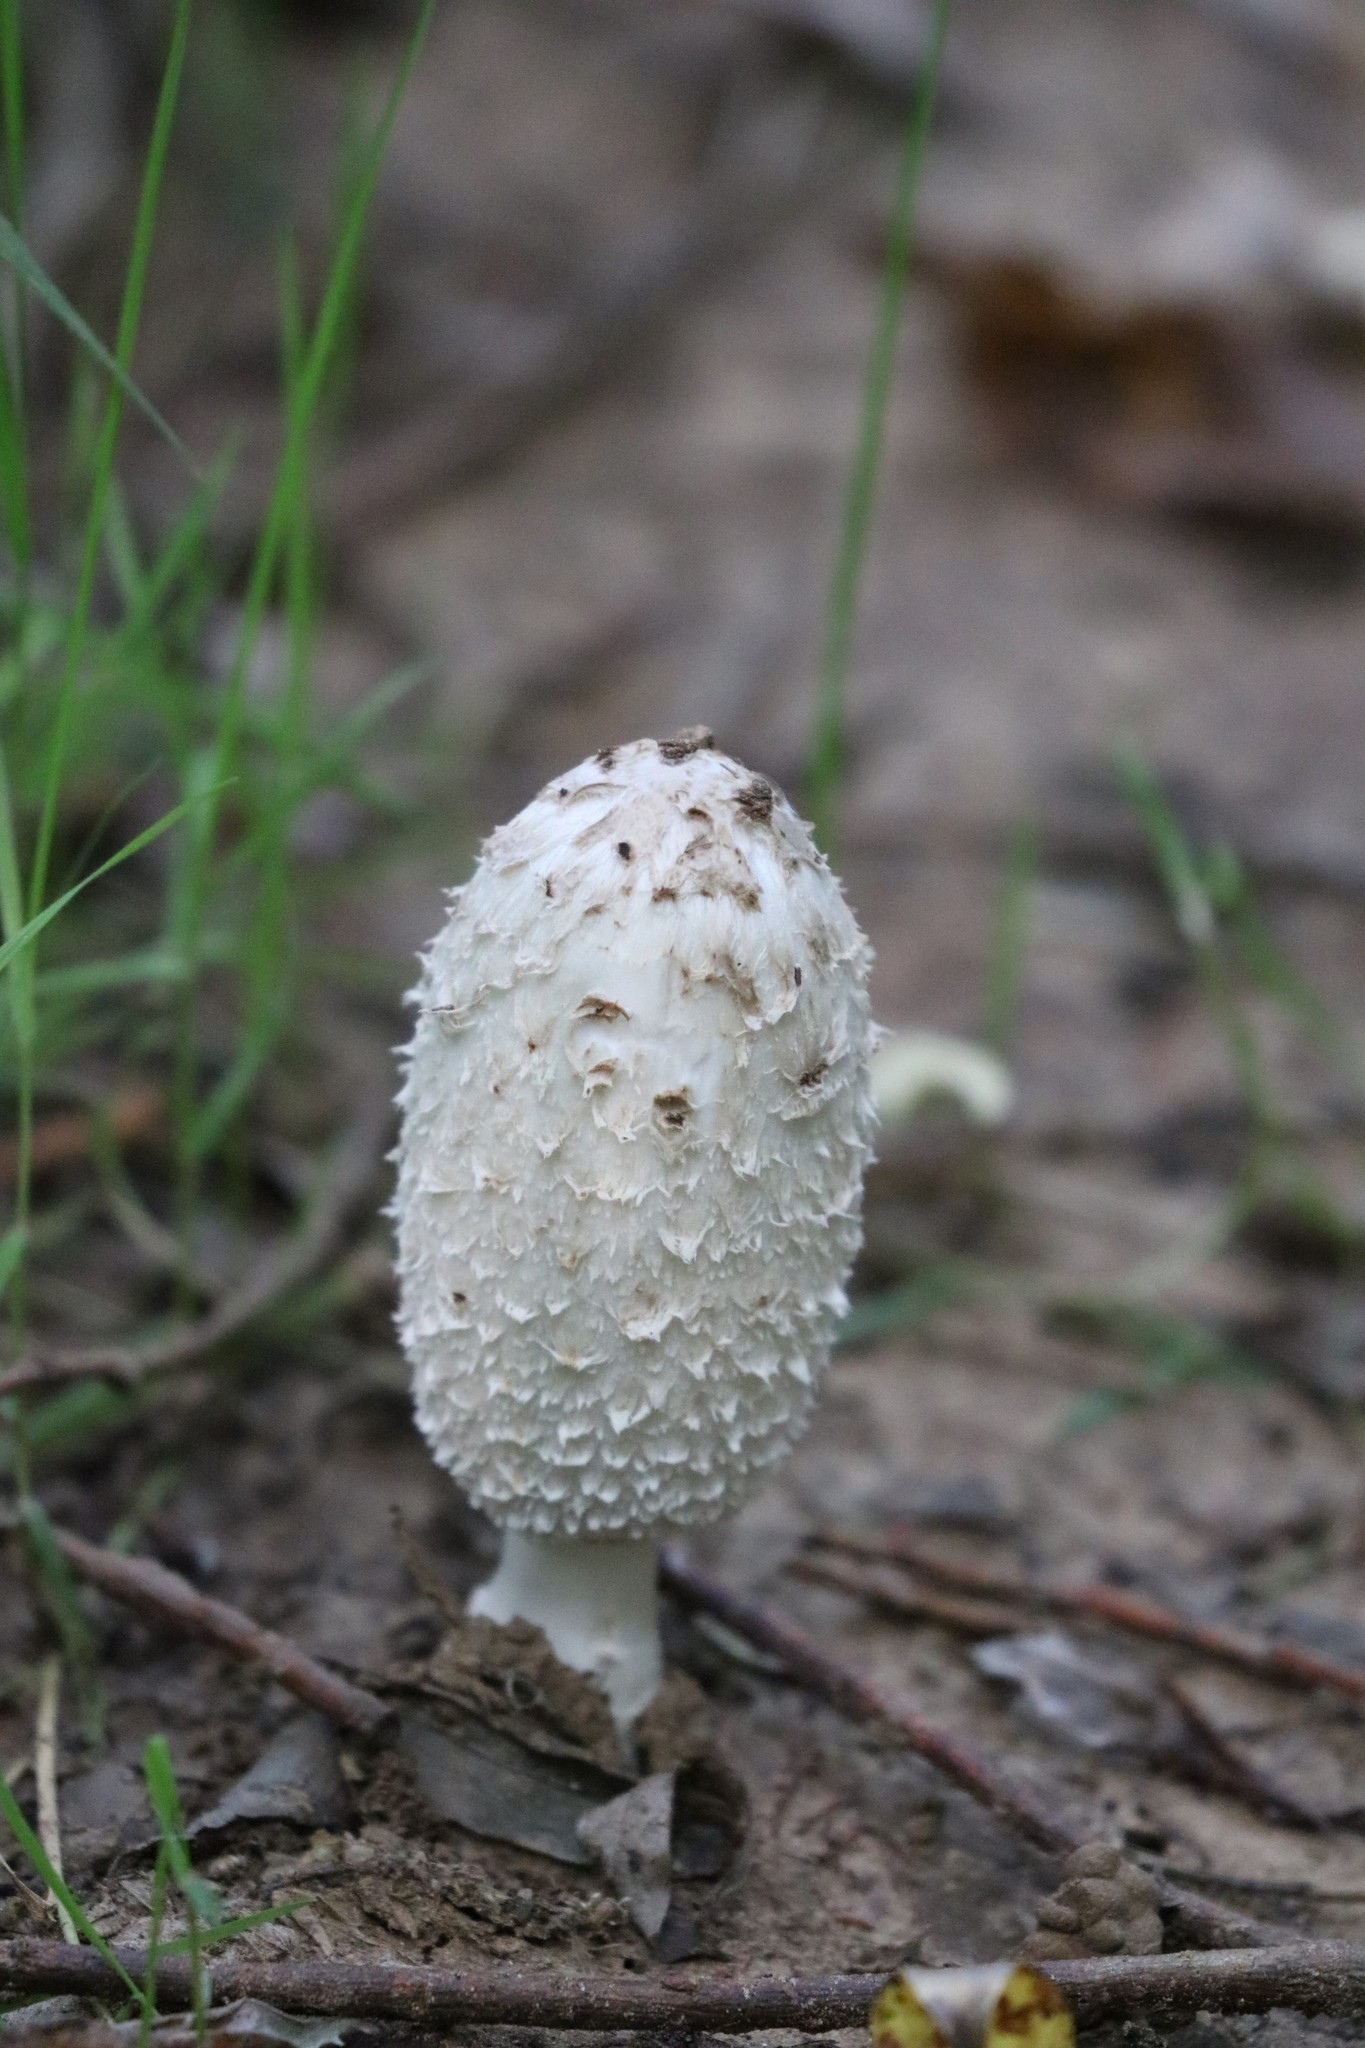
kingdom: Fungi
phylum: Basidiomycota
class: Agaricomycetes
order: Agaricales
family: Agaricaceae
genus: Coprinus
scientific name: Coprinus comatus
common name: Lawyer's wig
